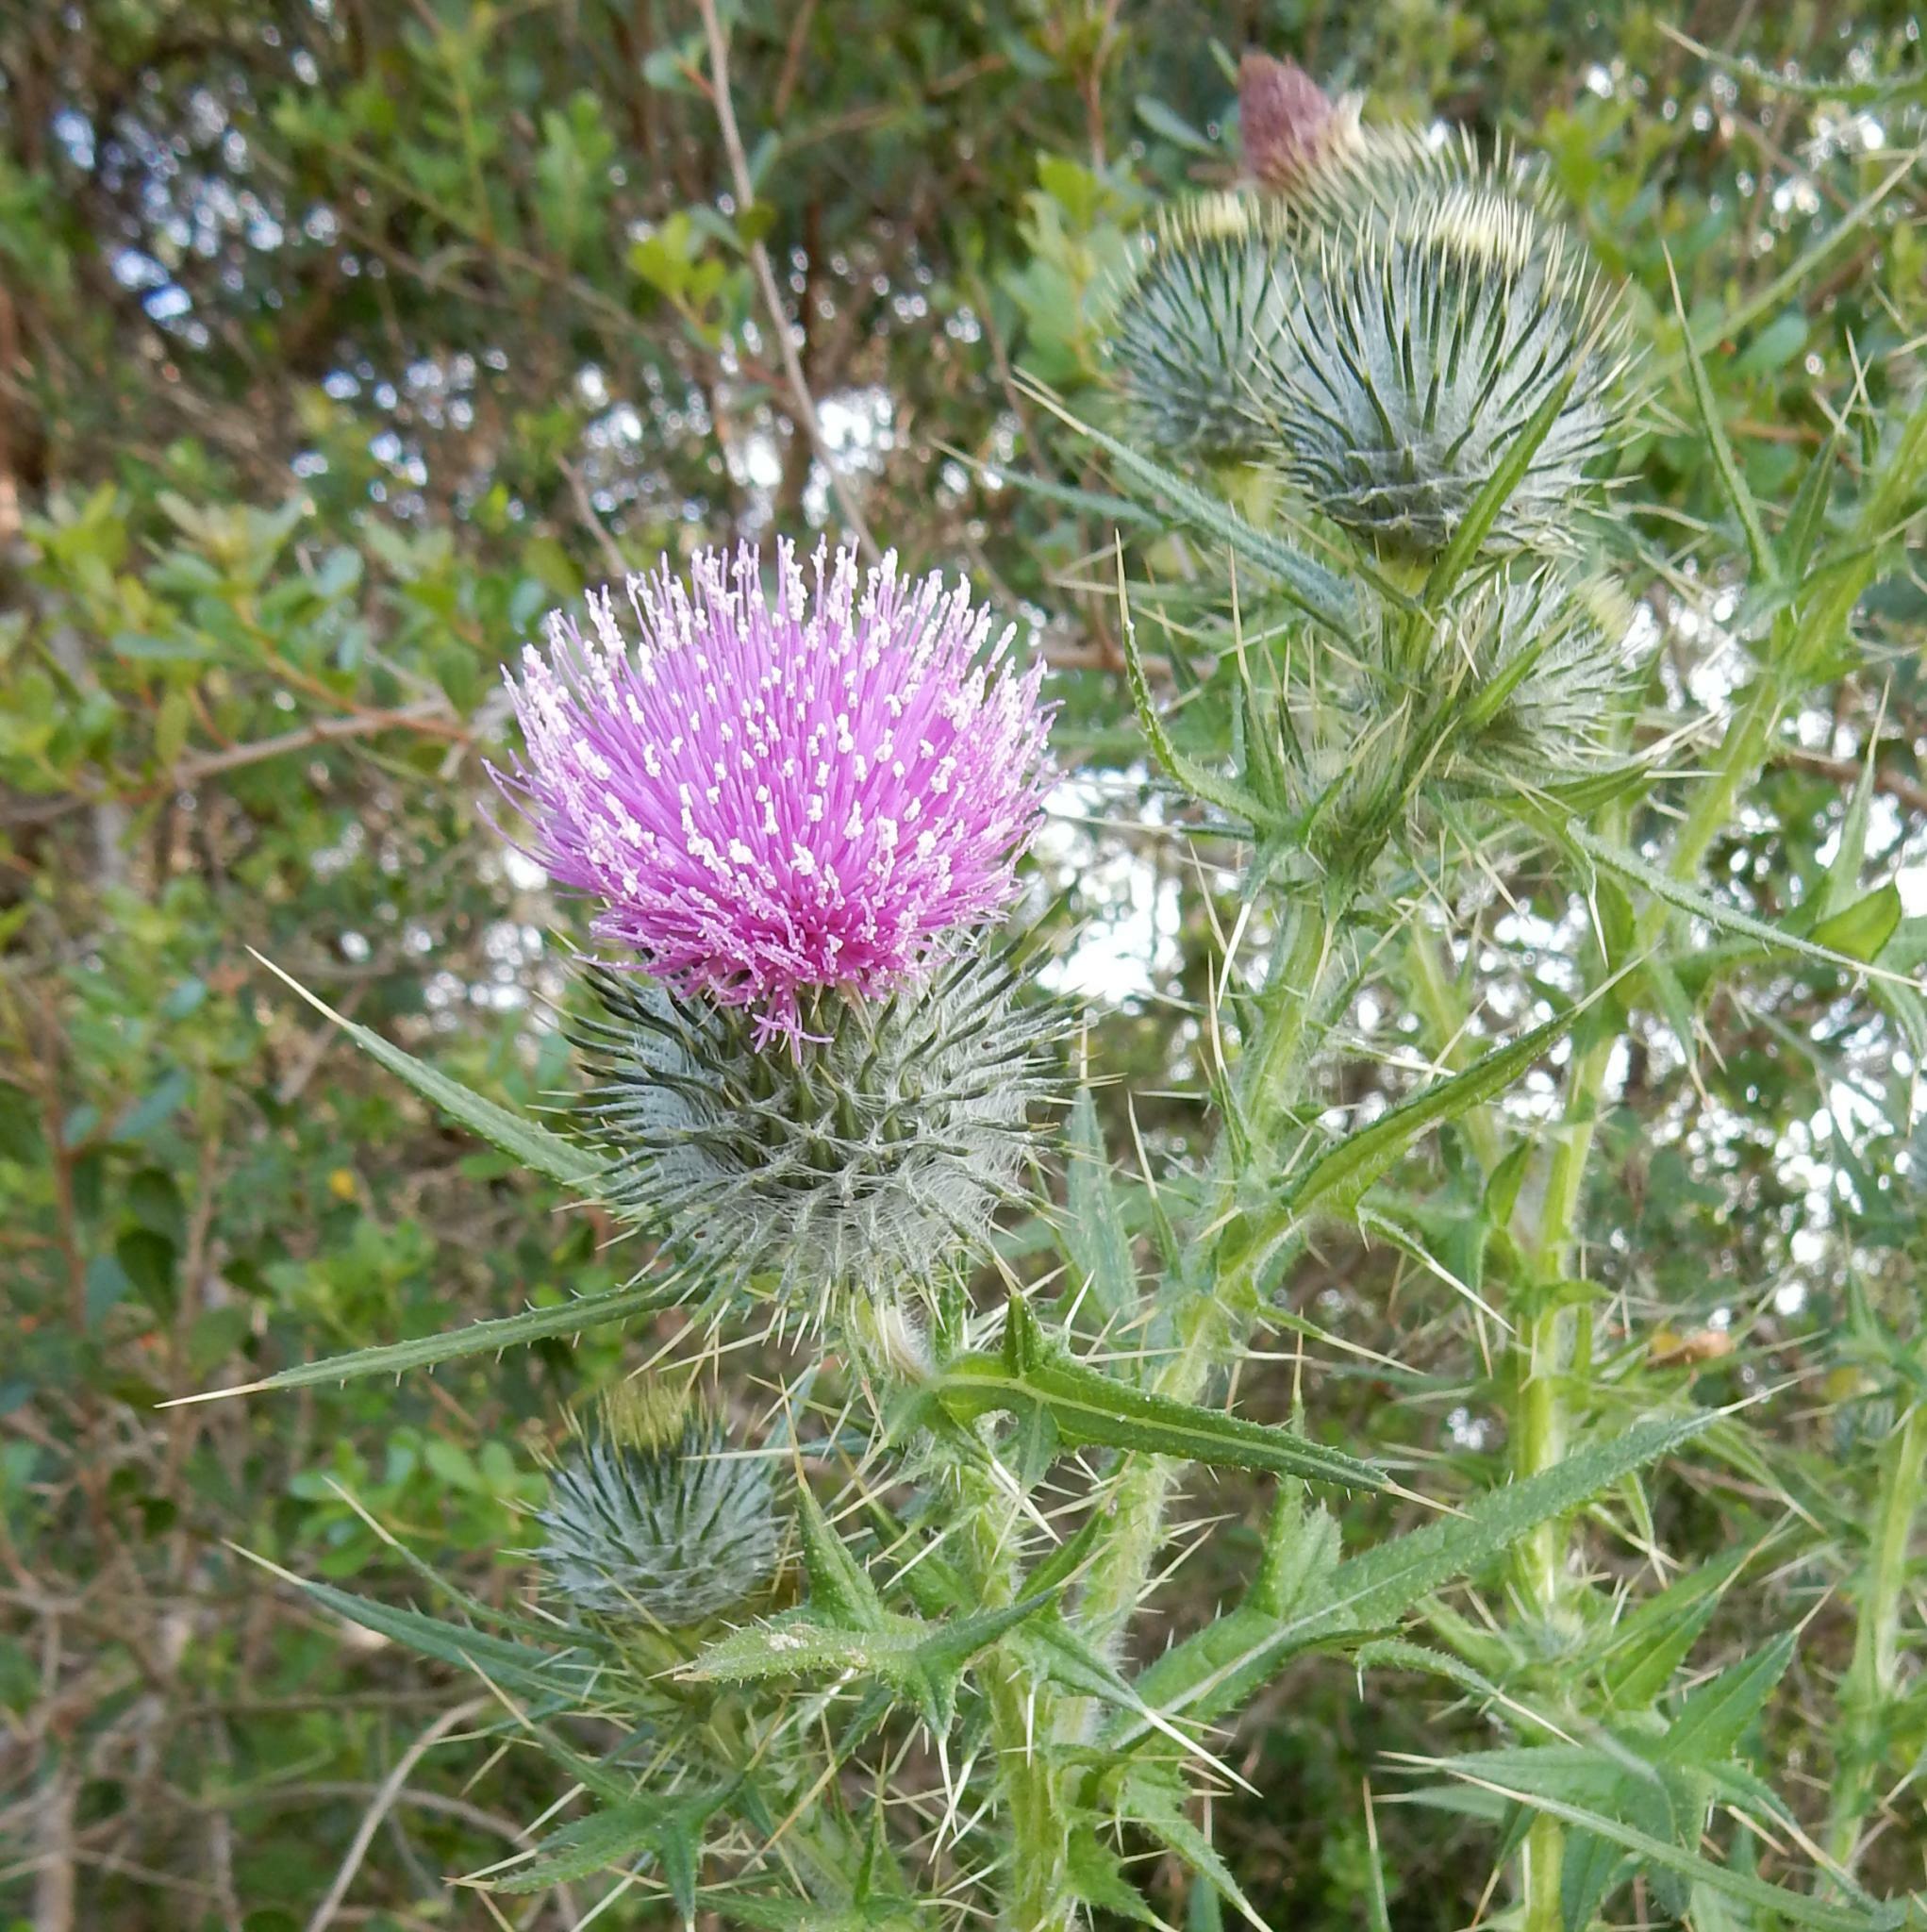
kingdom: Plantae
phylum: Tracheophyta
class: Magnoliopsida
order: Asterales
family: Asteraceae
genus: Cirsium
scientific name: Cirsium vulgare
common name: Bull thistle
